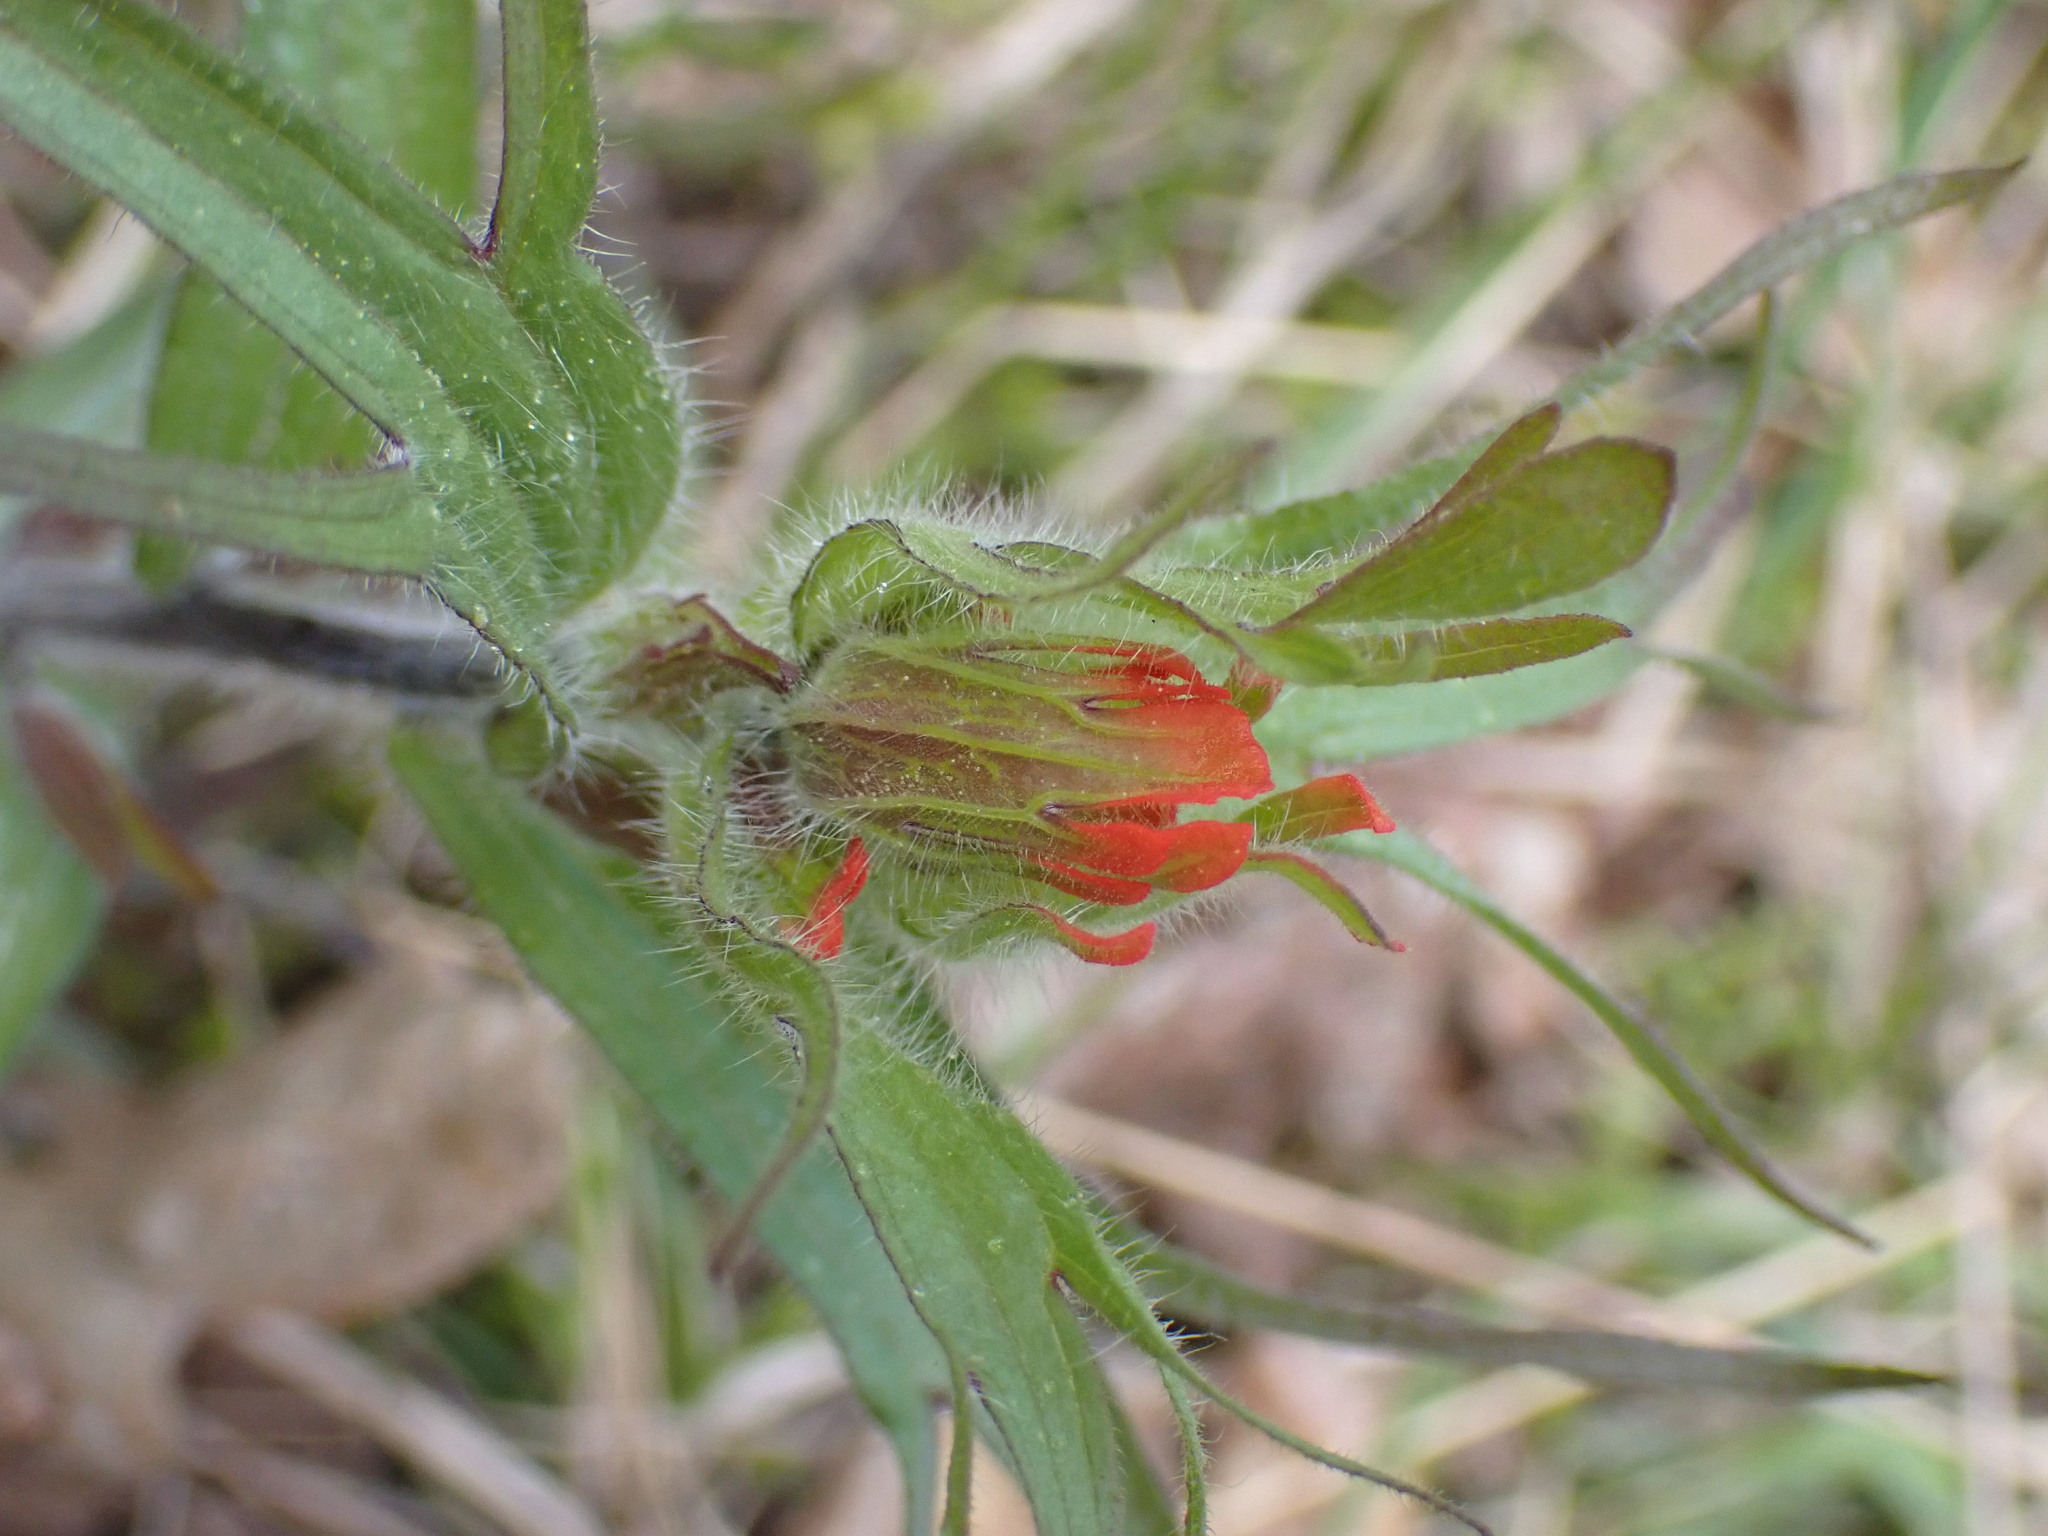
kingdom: Plantae
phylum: Tracheophyta
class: Magnoliopsida
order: Lamiales
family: Orobanchaceae
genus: Castilleja
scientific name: Castilleja hispida
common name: Bristly paintbrush
